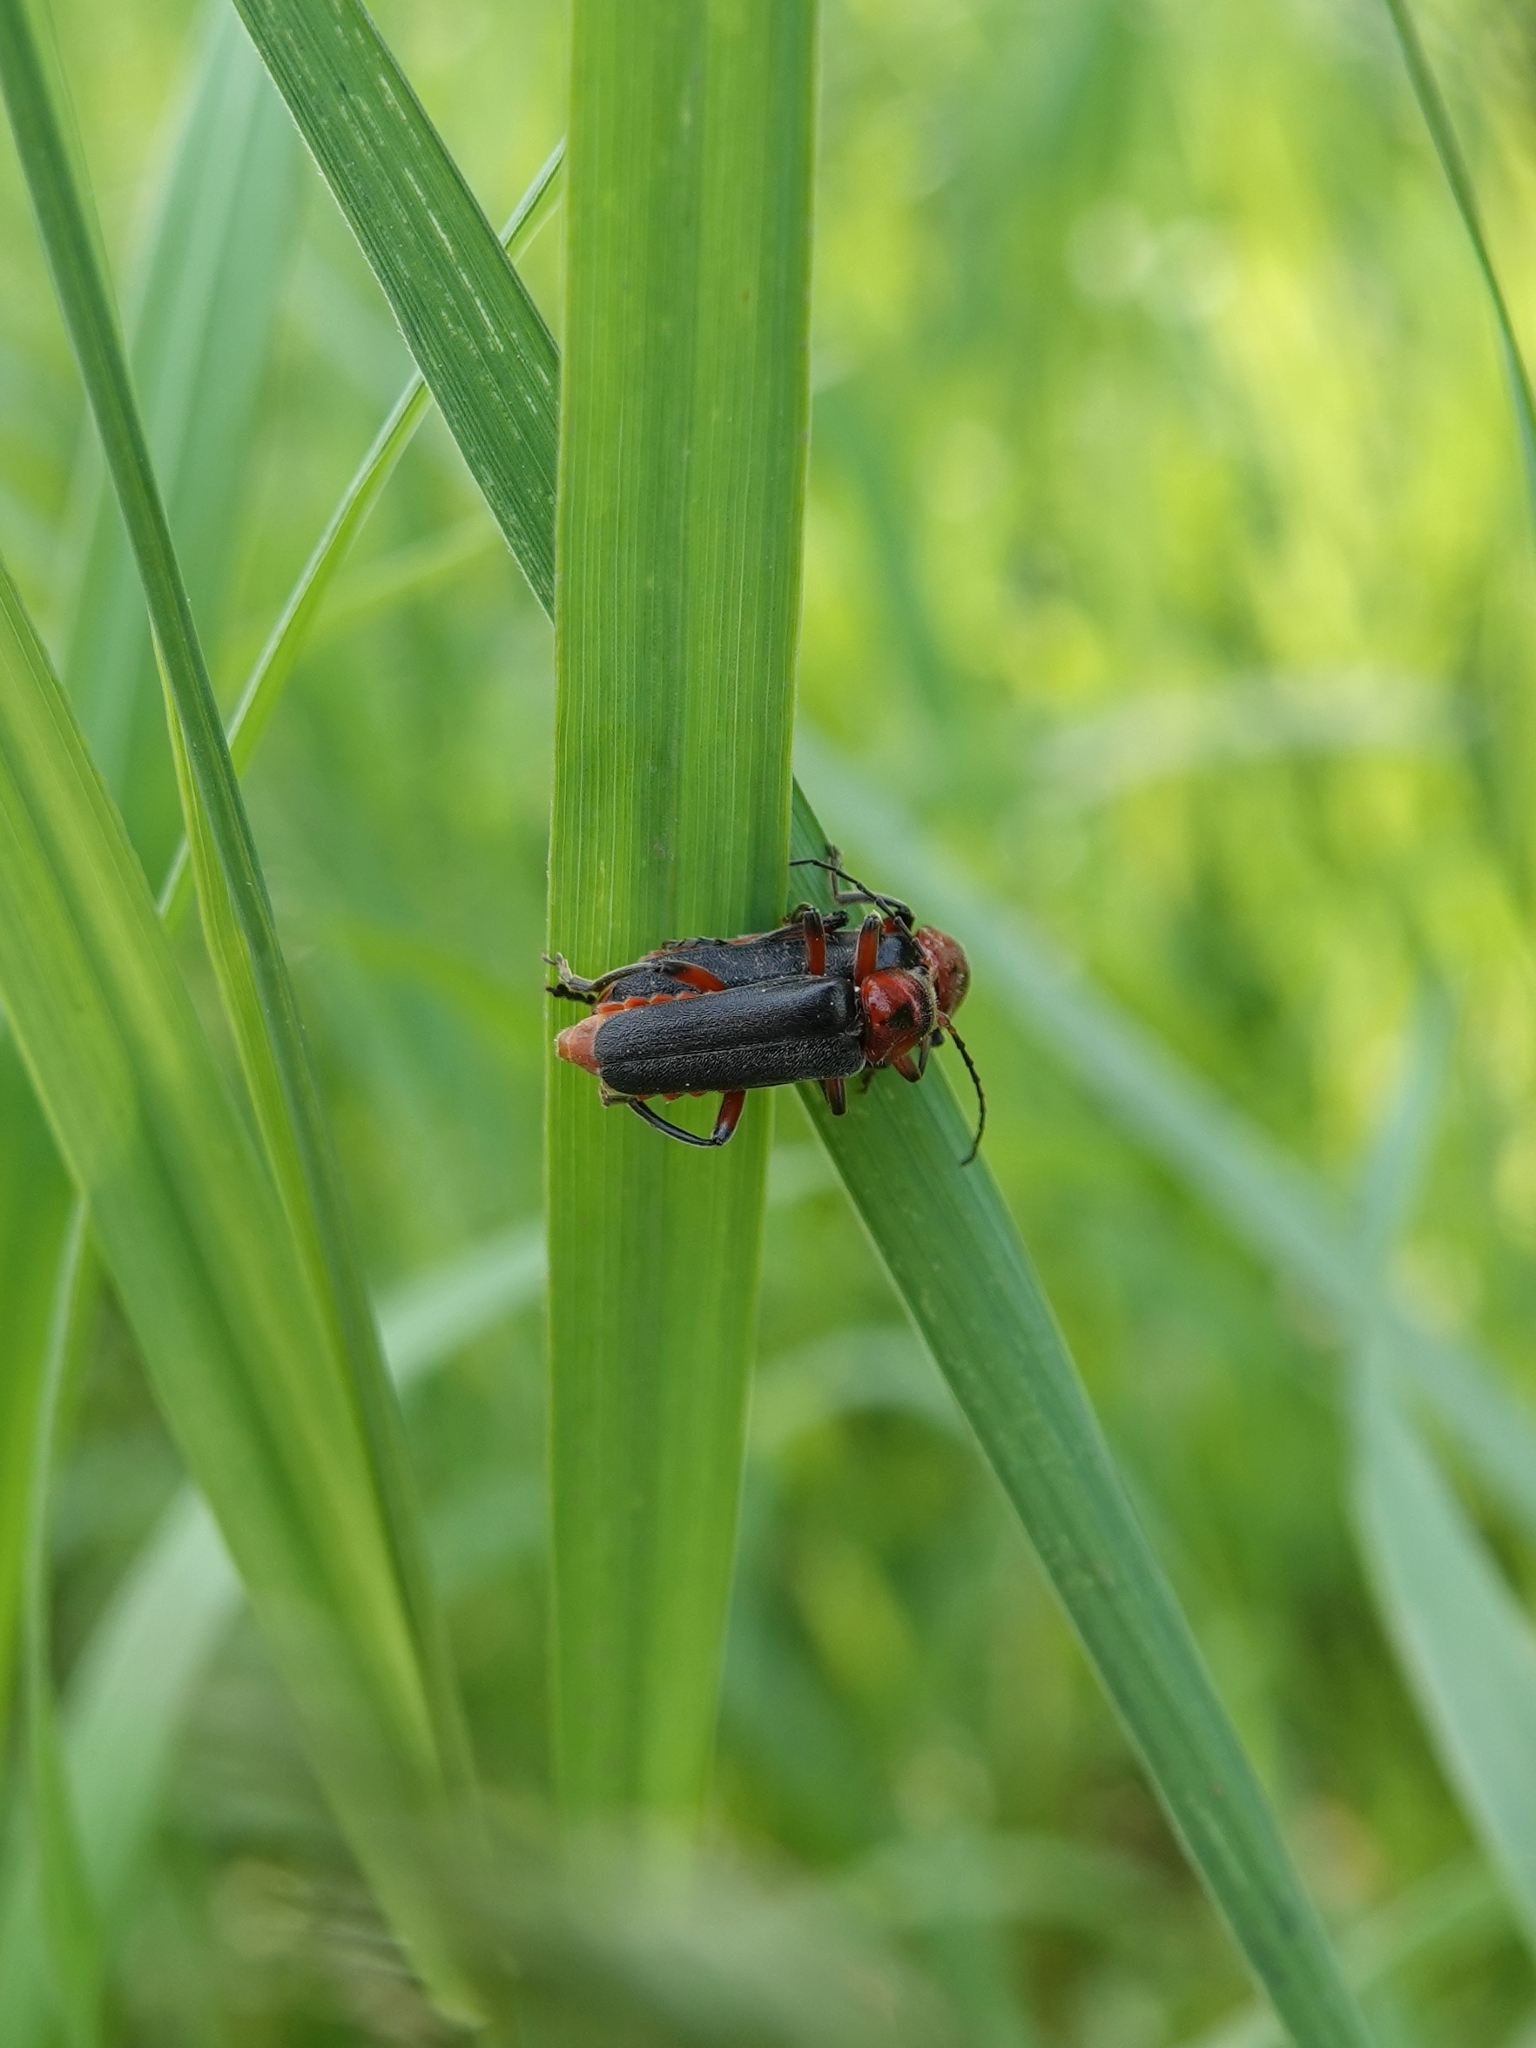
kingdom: Animalia
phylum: Arthropoda
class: Insecta
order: Coleoptera
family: Cantharidae
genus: Cantharis
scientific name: Cantharis rustica
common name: Soldier beetle
